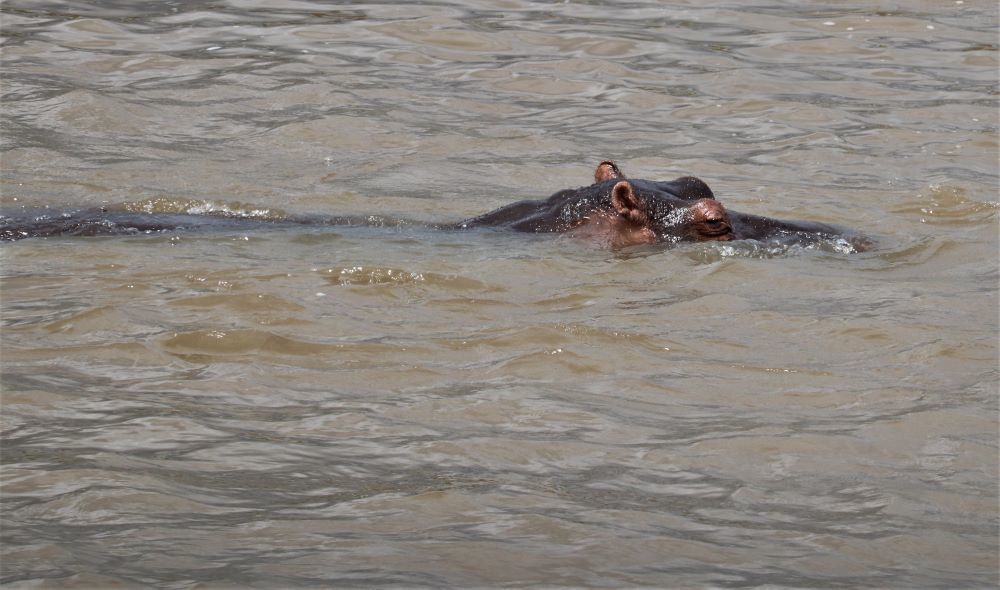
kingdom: Animalia
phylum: Chordata
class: Mammalia
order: Artiodactyla
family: Hippopotamidae
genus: Hippopotamus
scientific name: Hippopotamus amphibius
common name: Common hippopotamus
